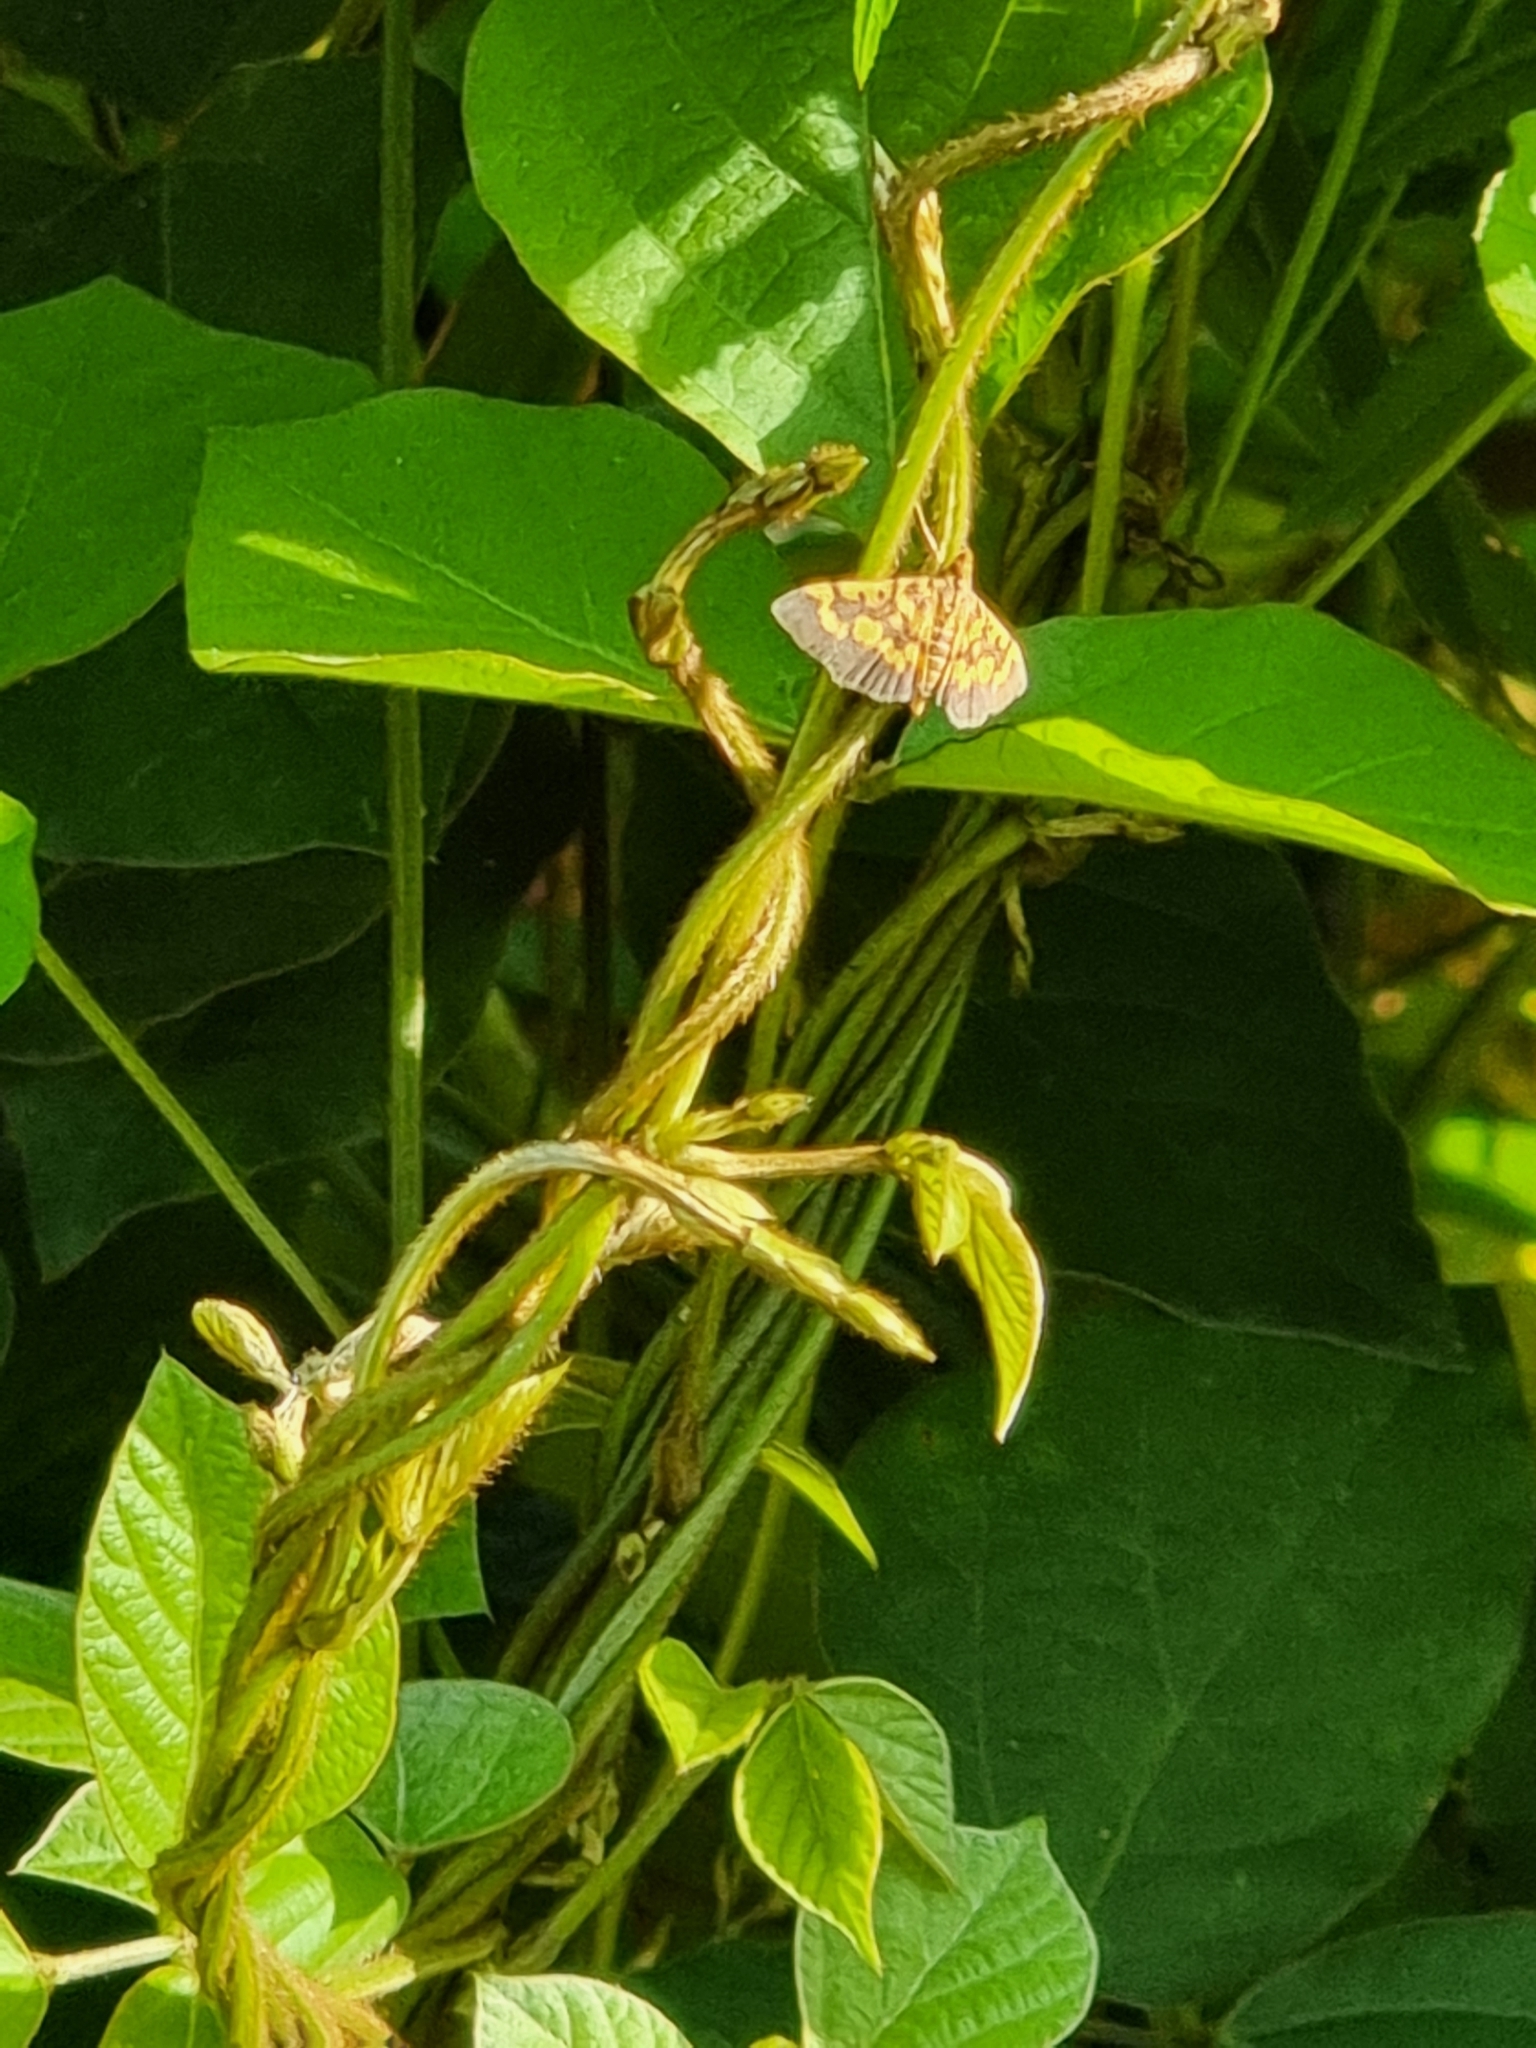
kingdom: Animalia
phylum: Arthropoda
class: Insecta
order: Lepidoptera
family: Crambidae
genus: Omiodes
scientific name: Omiodes diemenalis
